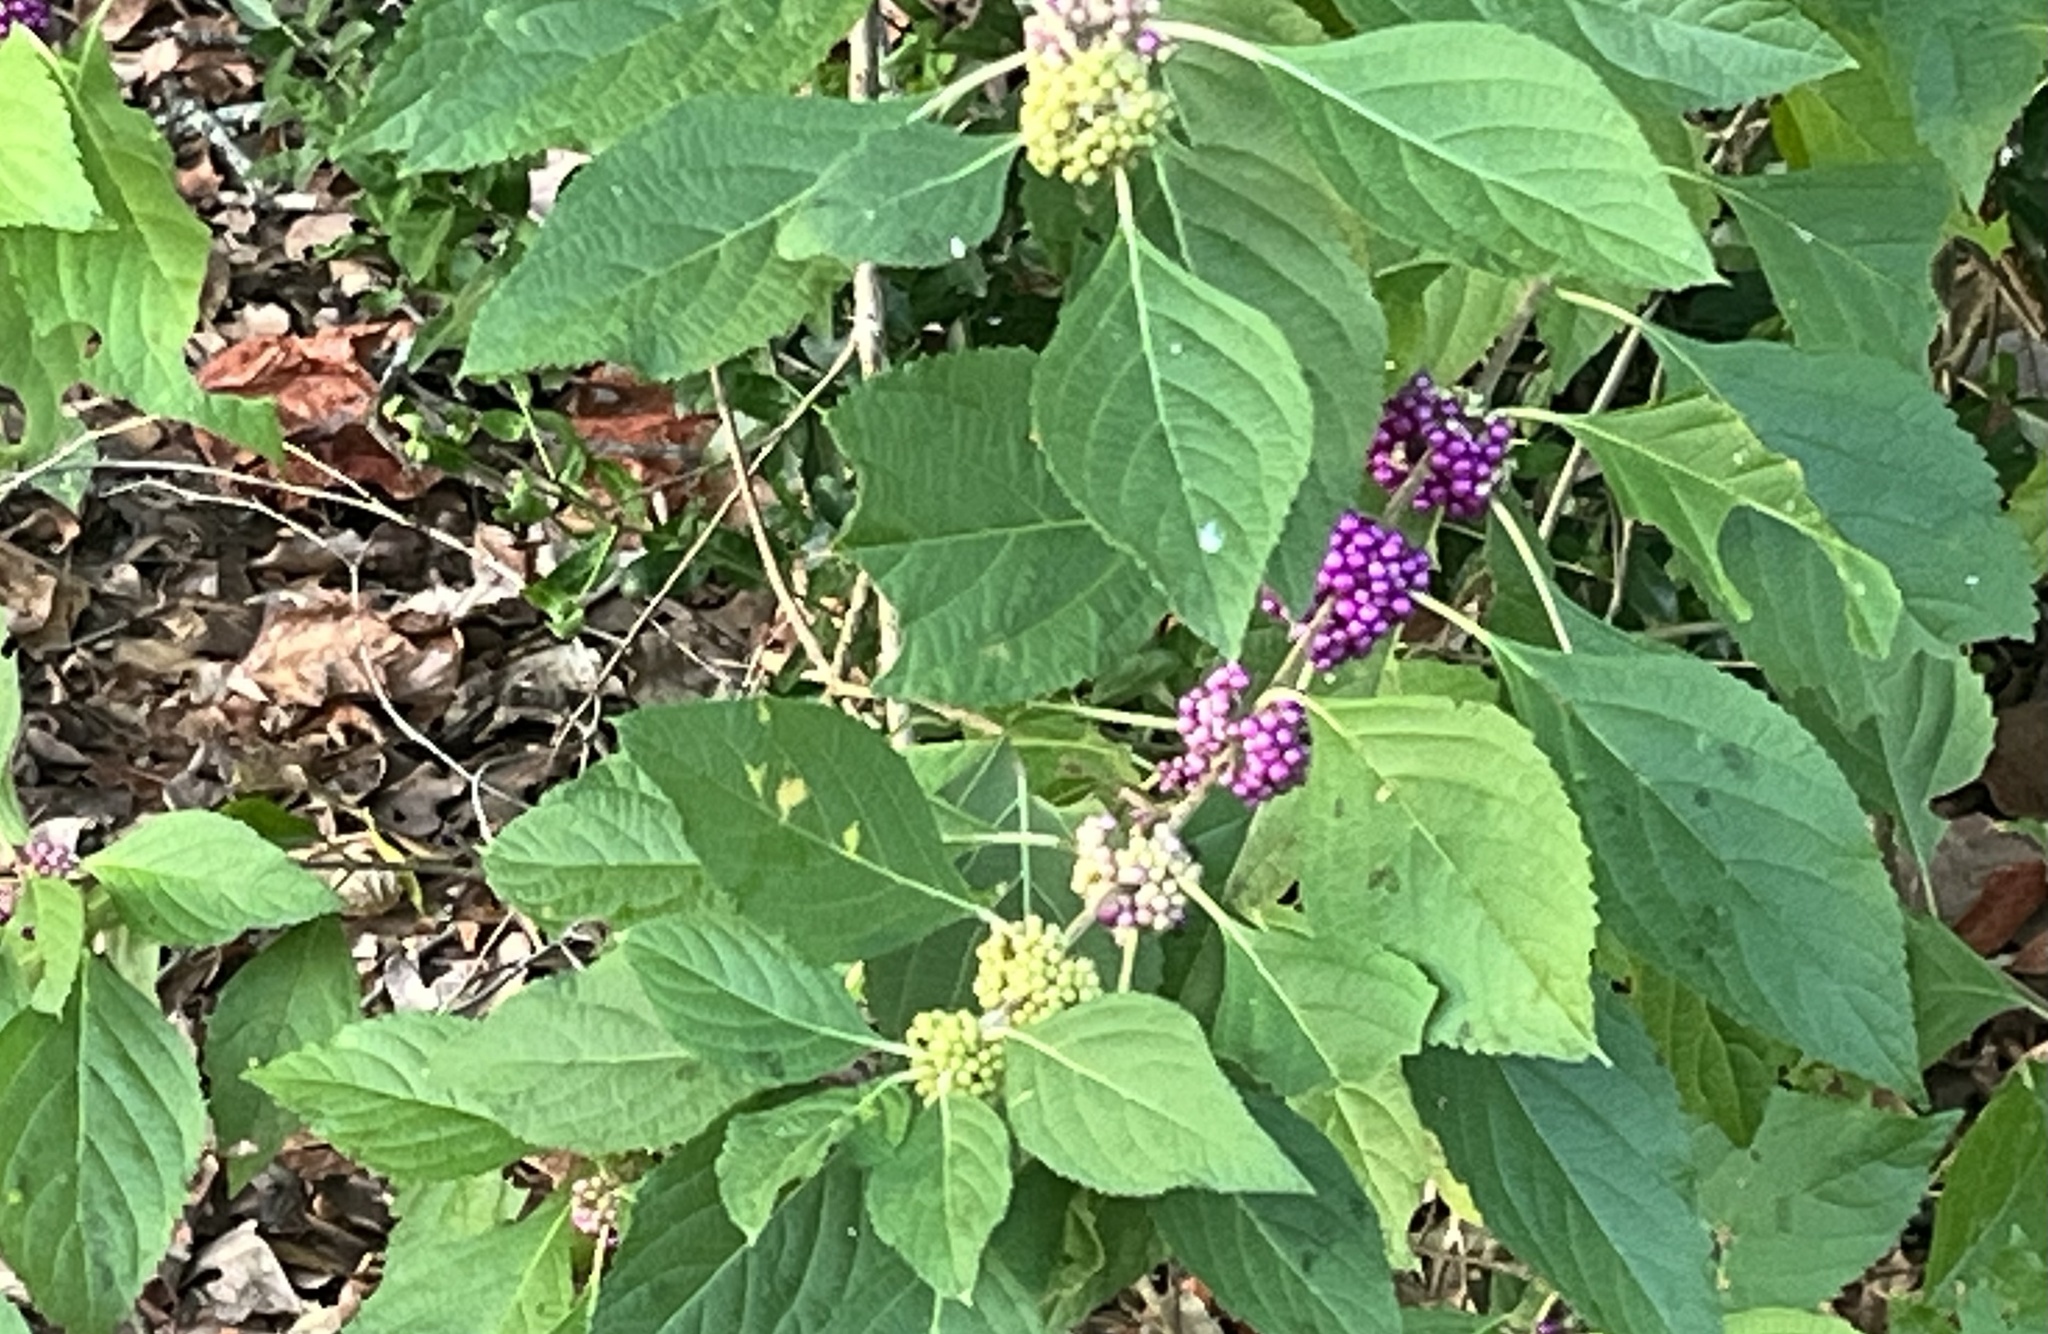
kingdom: Plantae
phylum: Tracheophyta
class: Magnoliopsida
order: Lamiales
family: Lamiaceae
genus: Callicarpa
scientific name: Callicarpa americana
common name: American beautyberry
